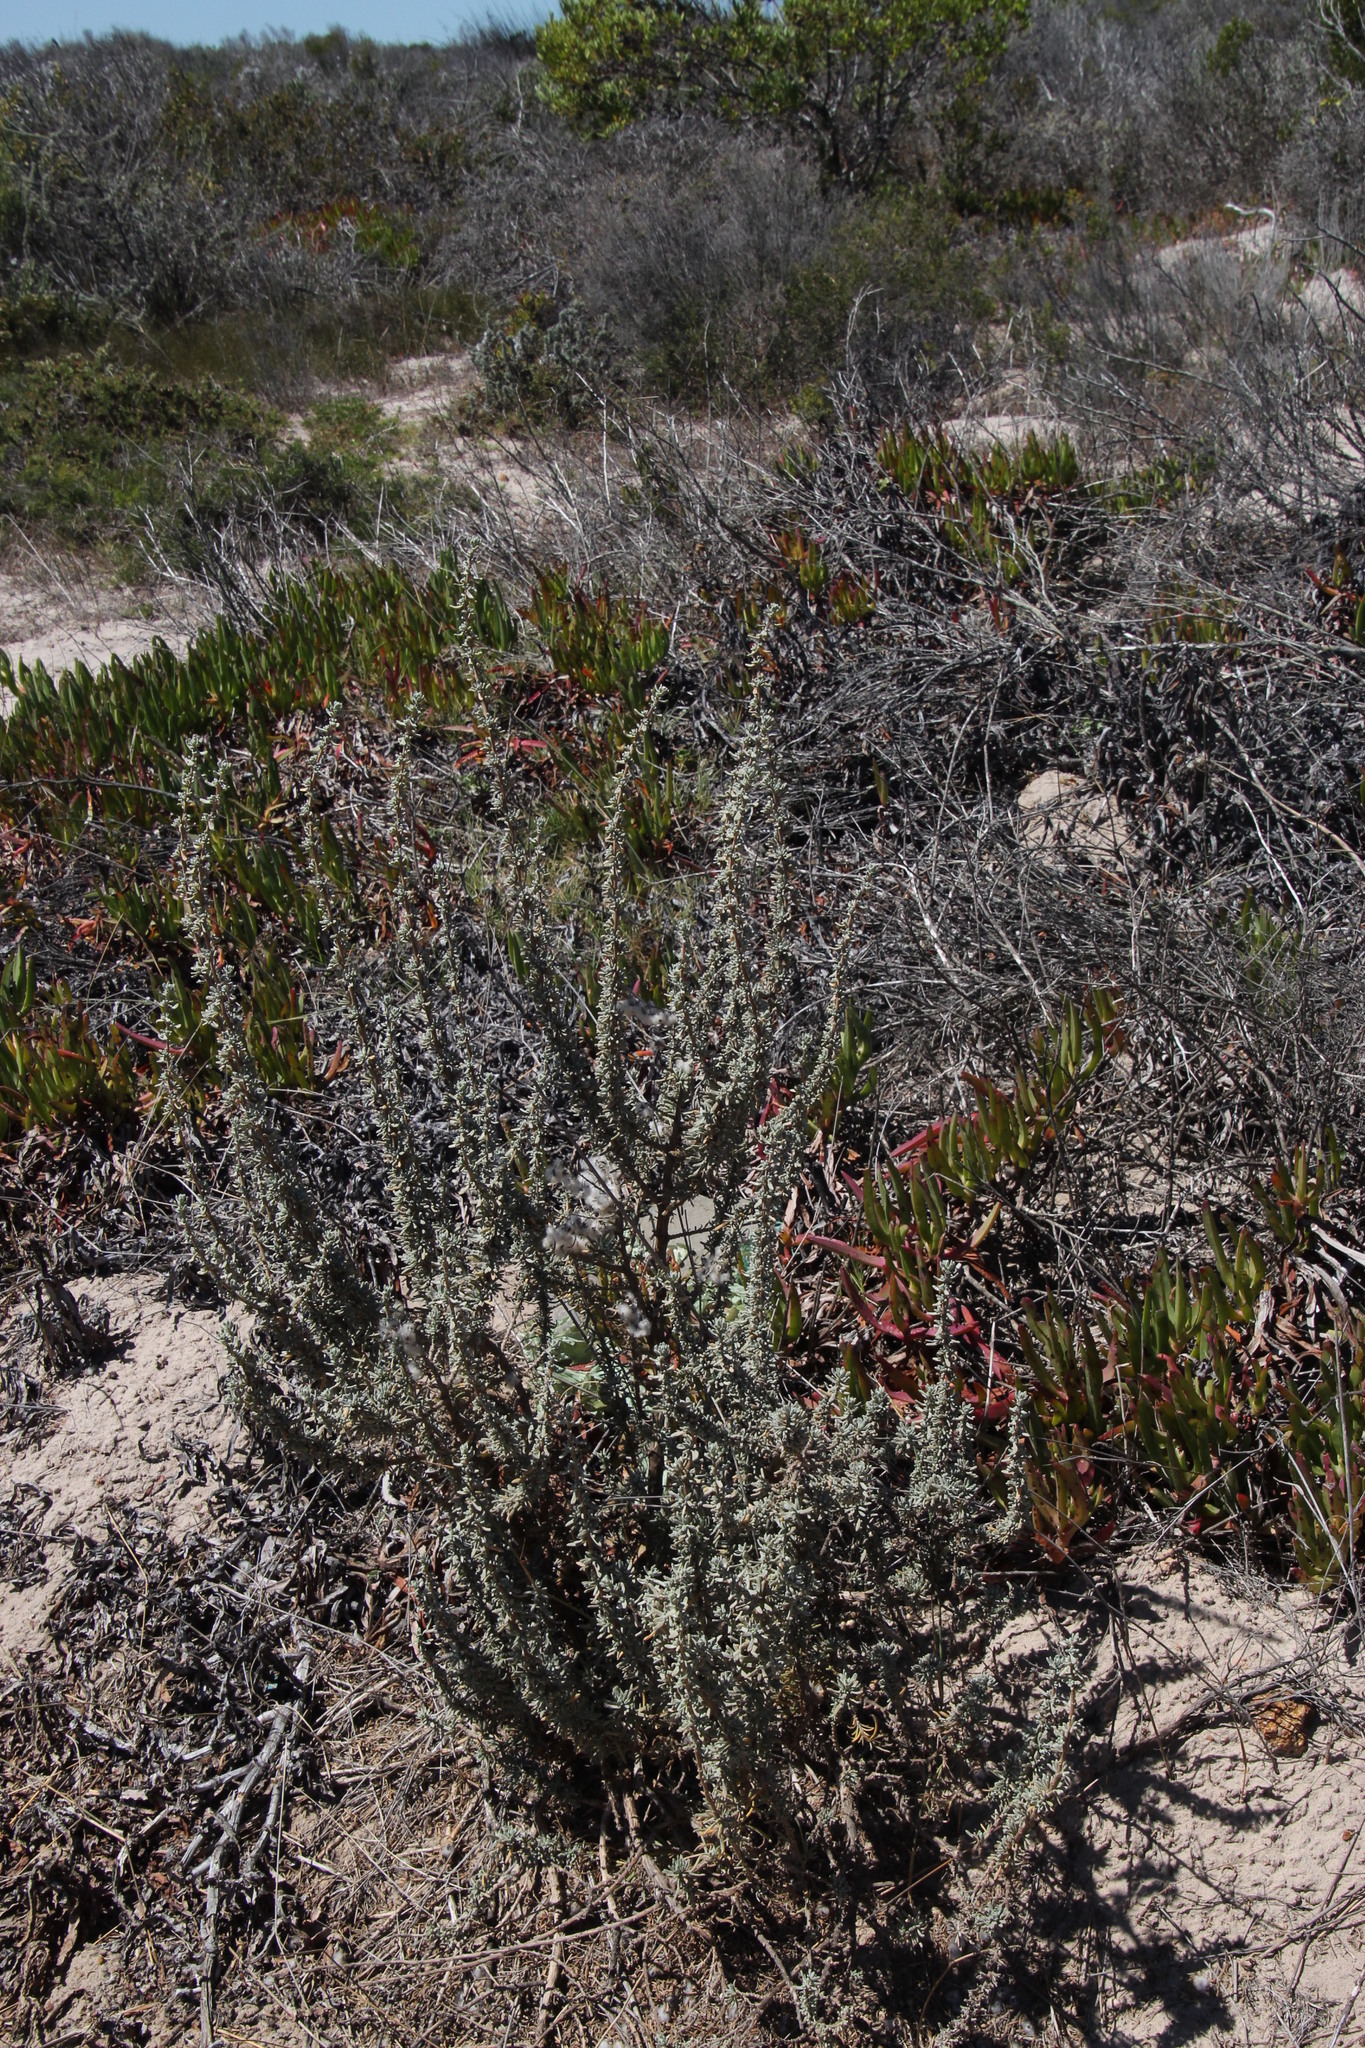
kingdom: Plantae
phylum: Tracheophyta
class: Magnoliopsida
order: Asterales
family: Asteraceae
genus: Eriocephalus
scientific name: Eriocephalus racemosus
